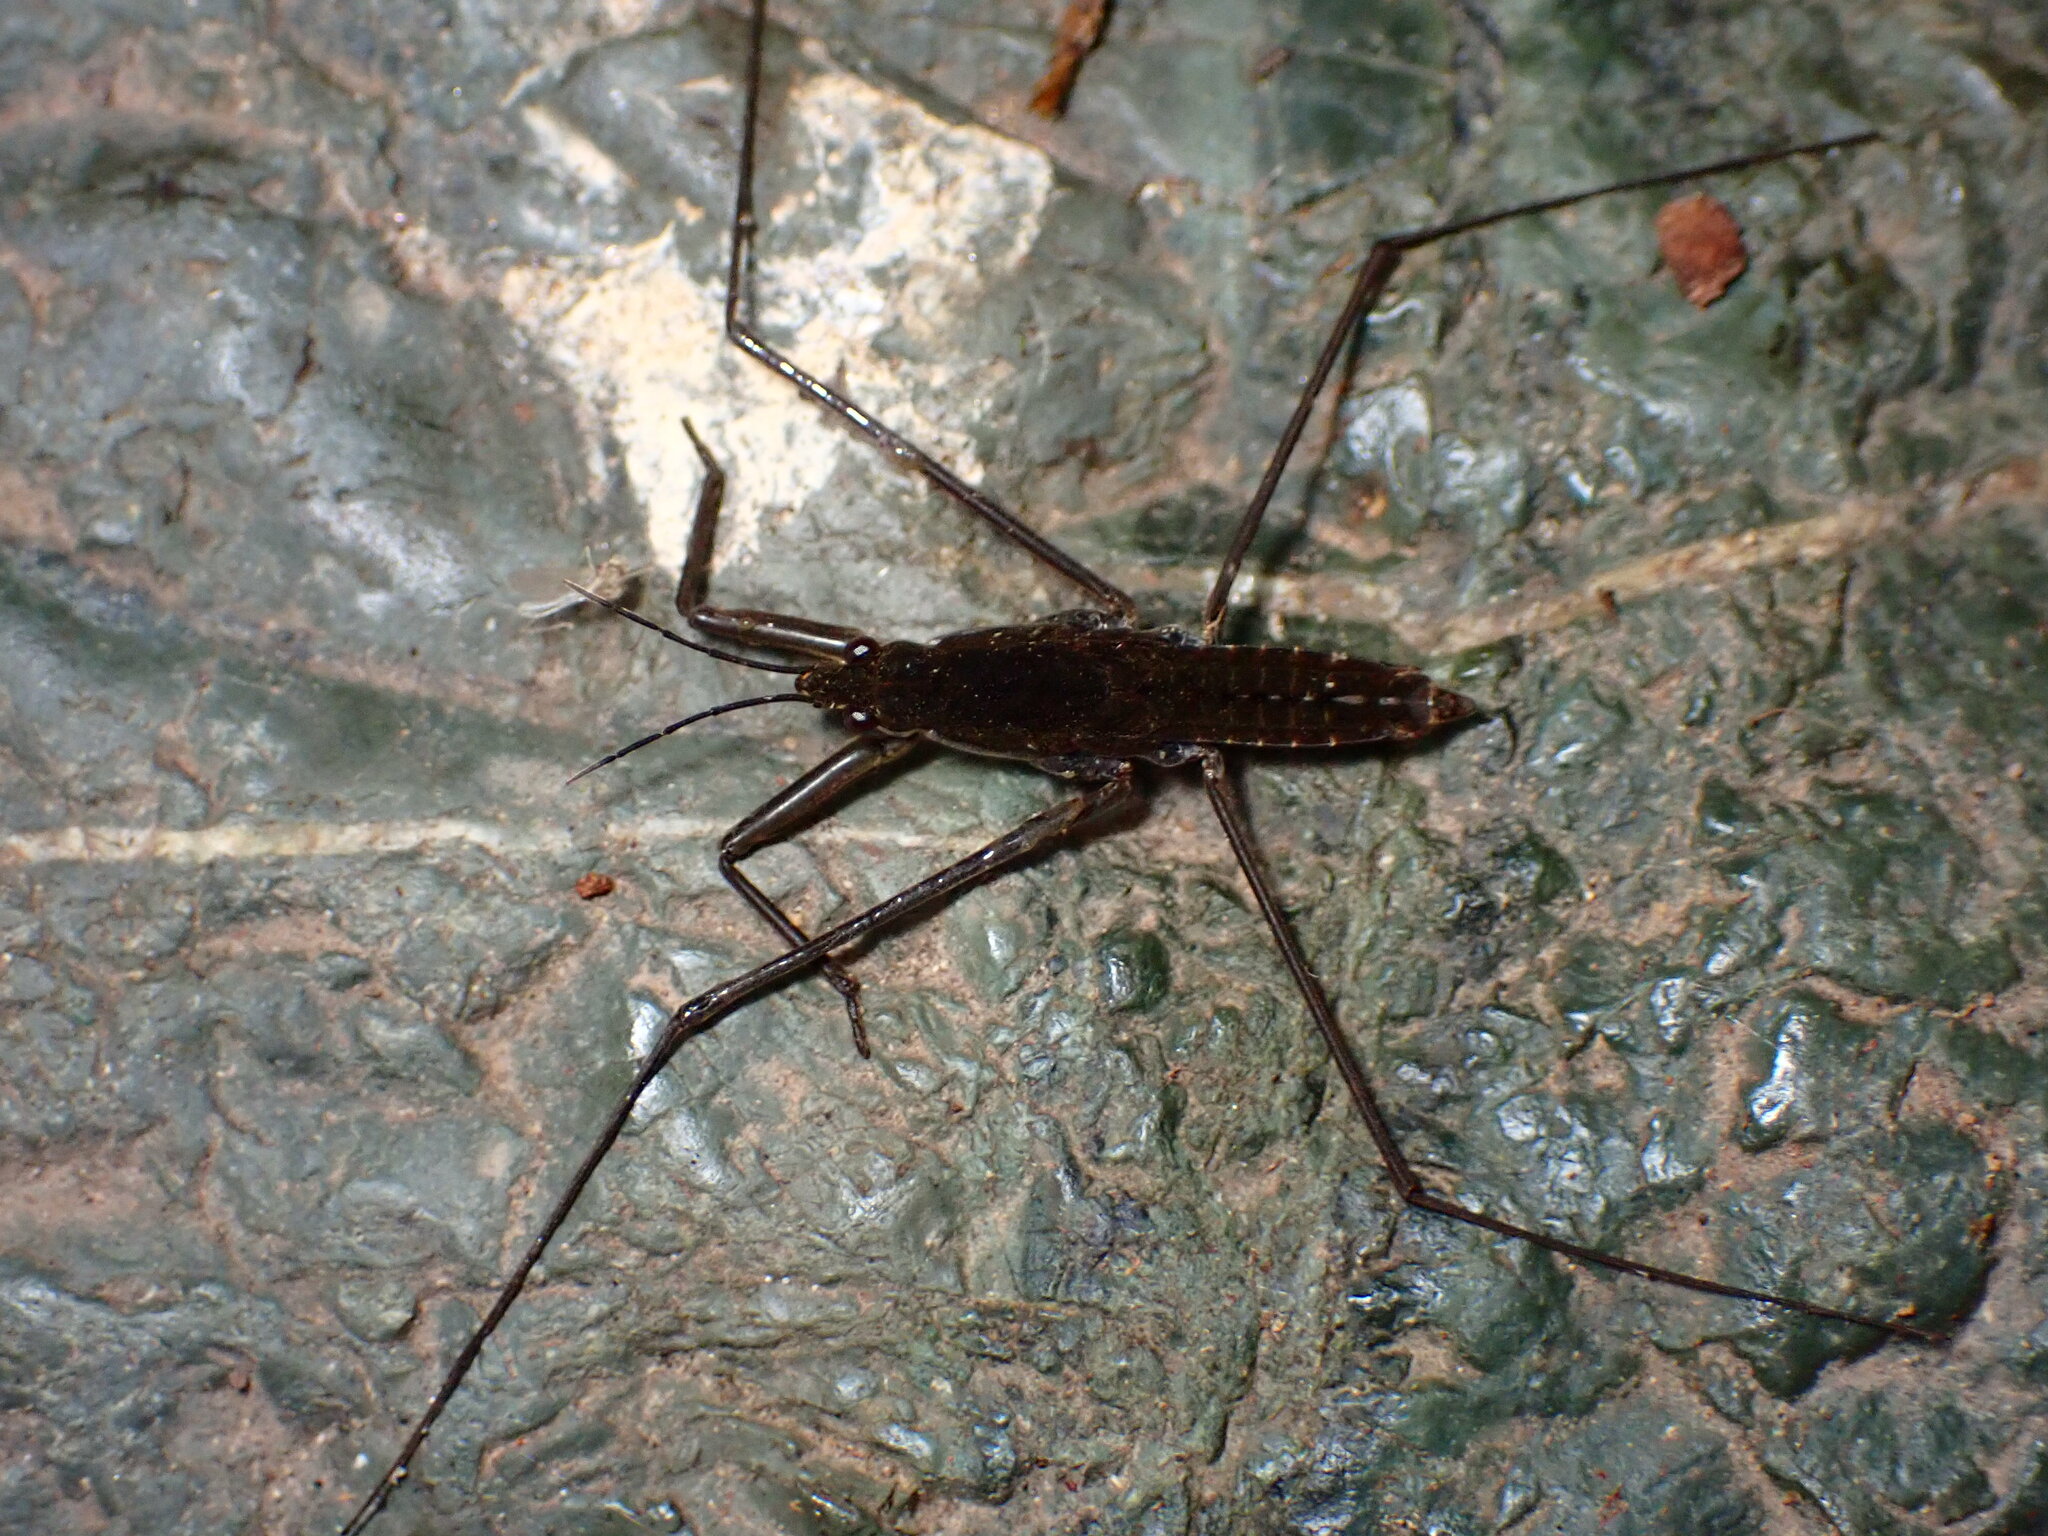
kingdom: Animalia
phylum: Arthropoda
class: Insecta
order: Hemiptera
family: Gerridae
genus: Aquarius
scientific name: Aquarius remigis
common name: Common water strider
